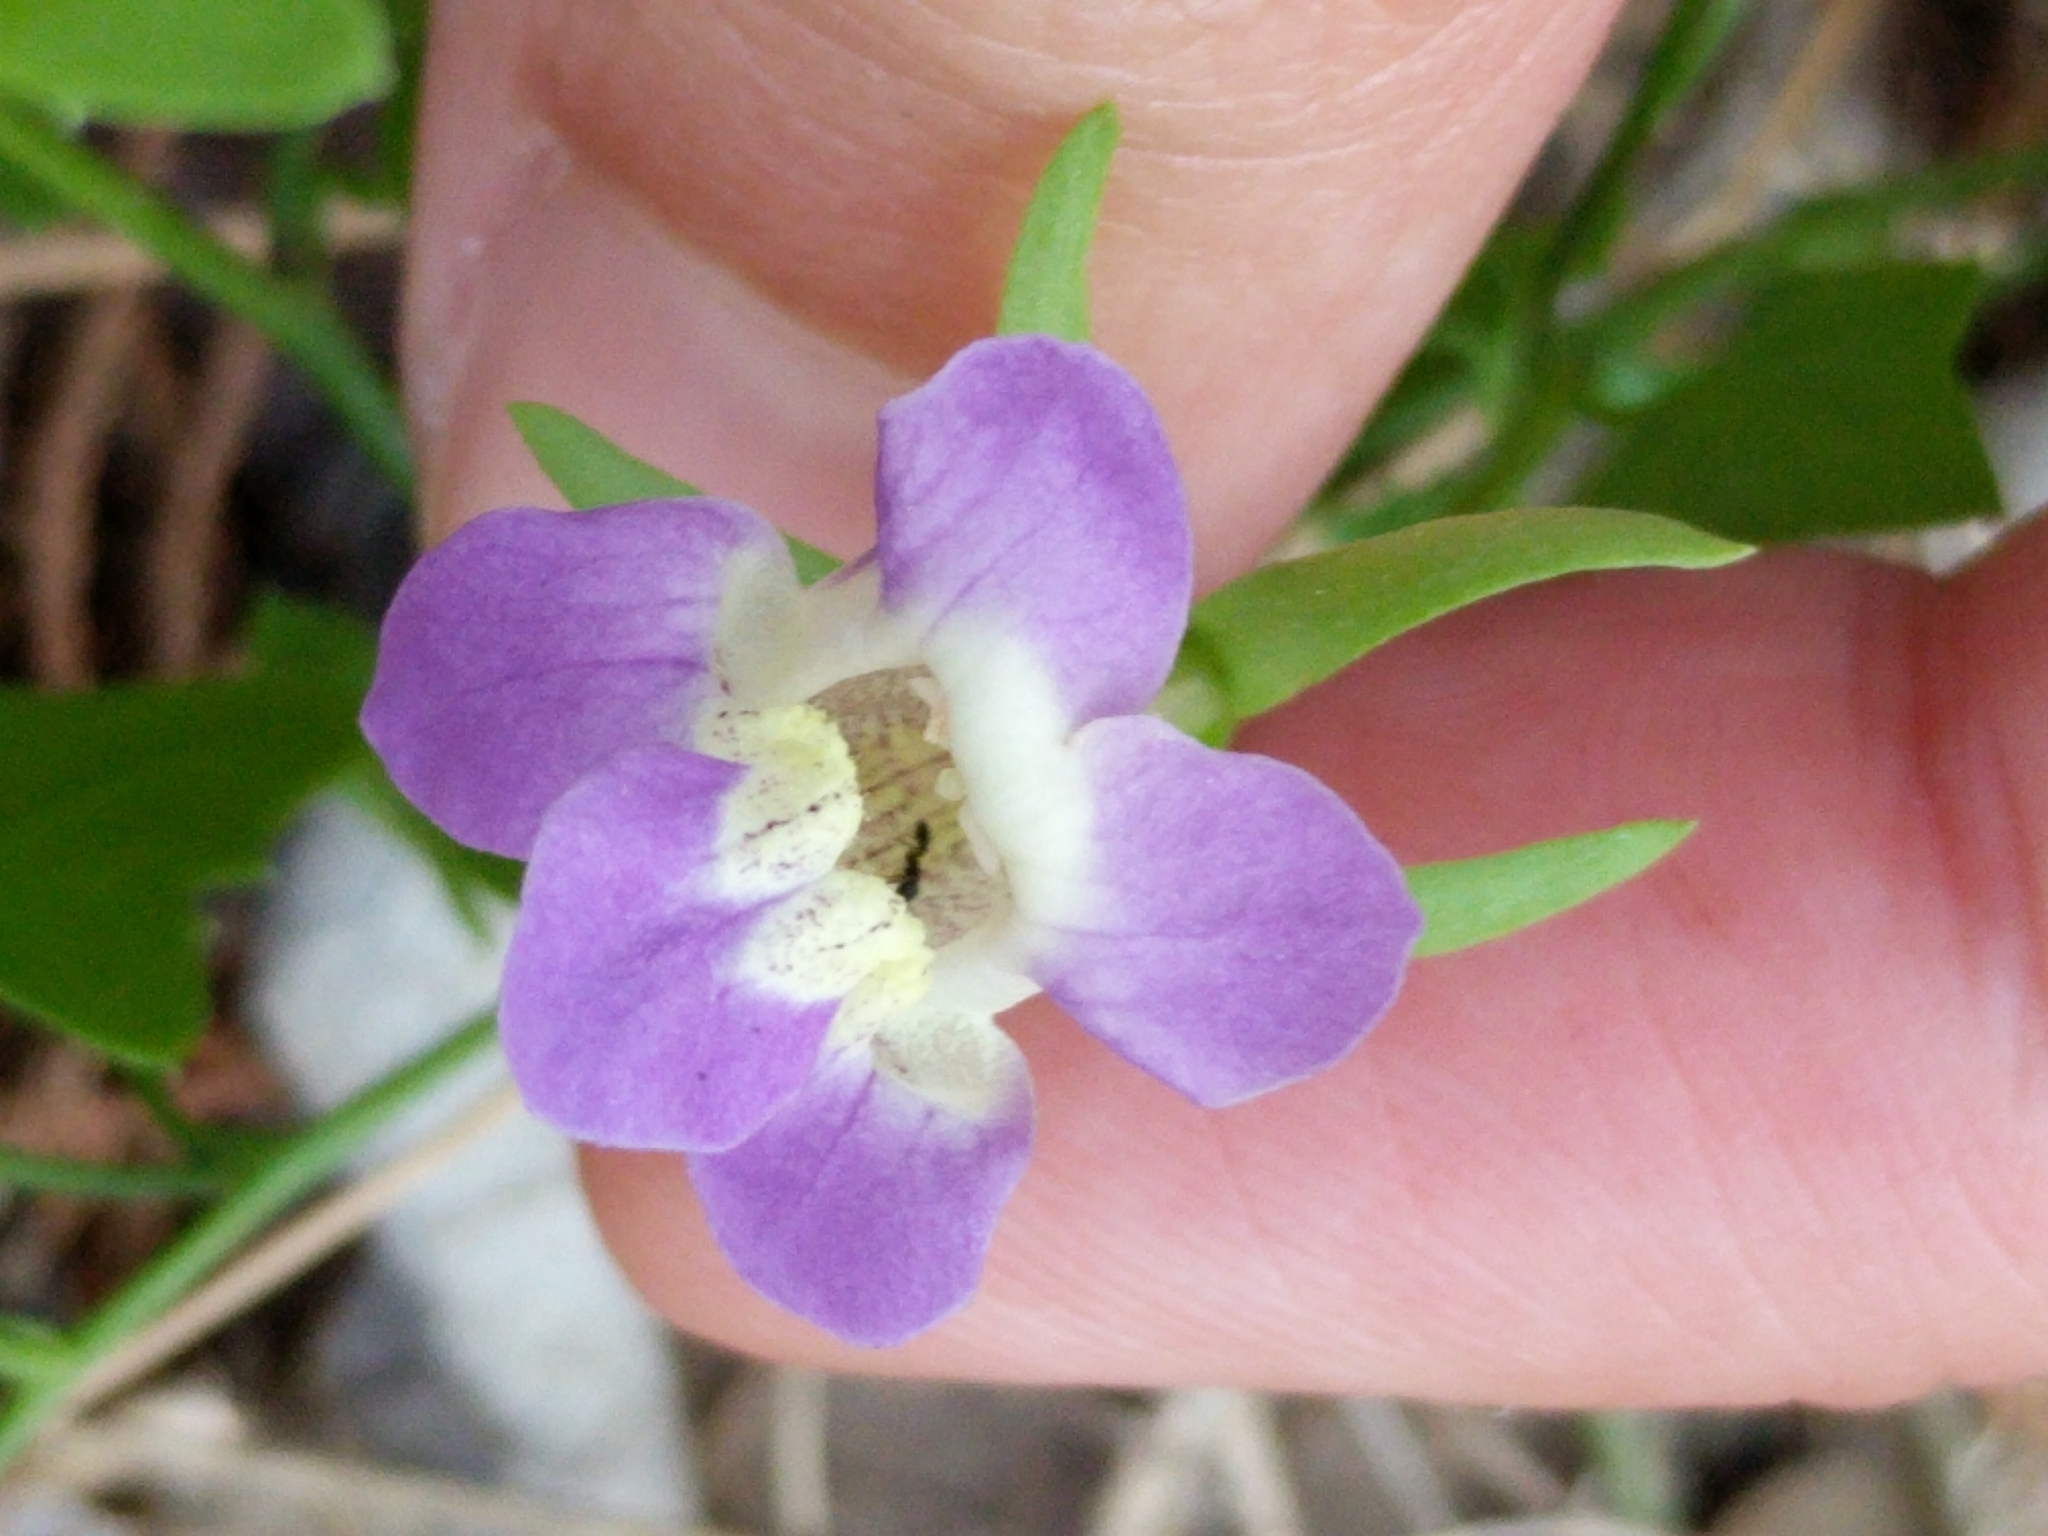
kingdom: Plantae
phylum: Tracheophyta
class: Magnoliopsida
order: Lamiales
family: Plantaginaceae
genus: Maurandella
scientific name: Maurandella antirrhiniflora
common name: Violet twining-snapdragon
